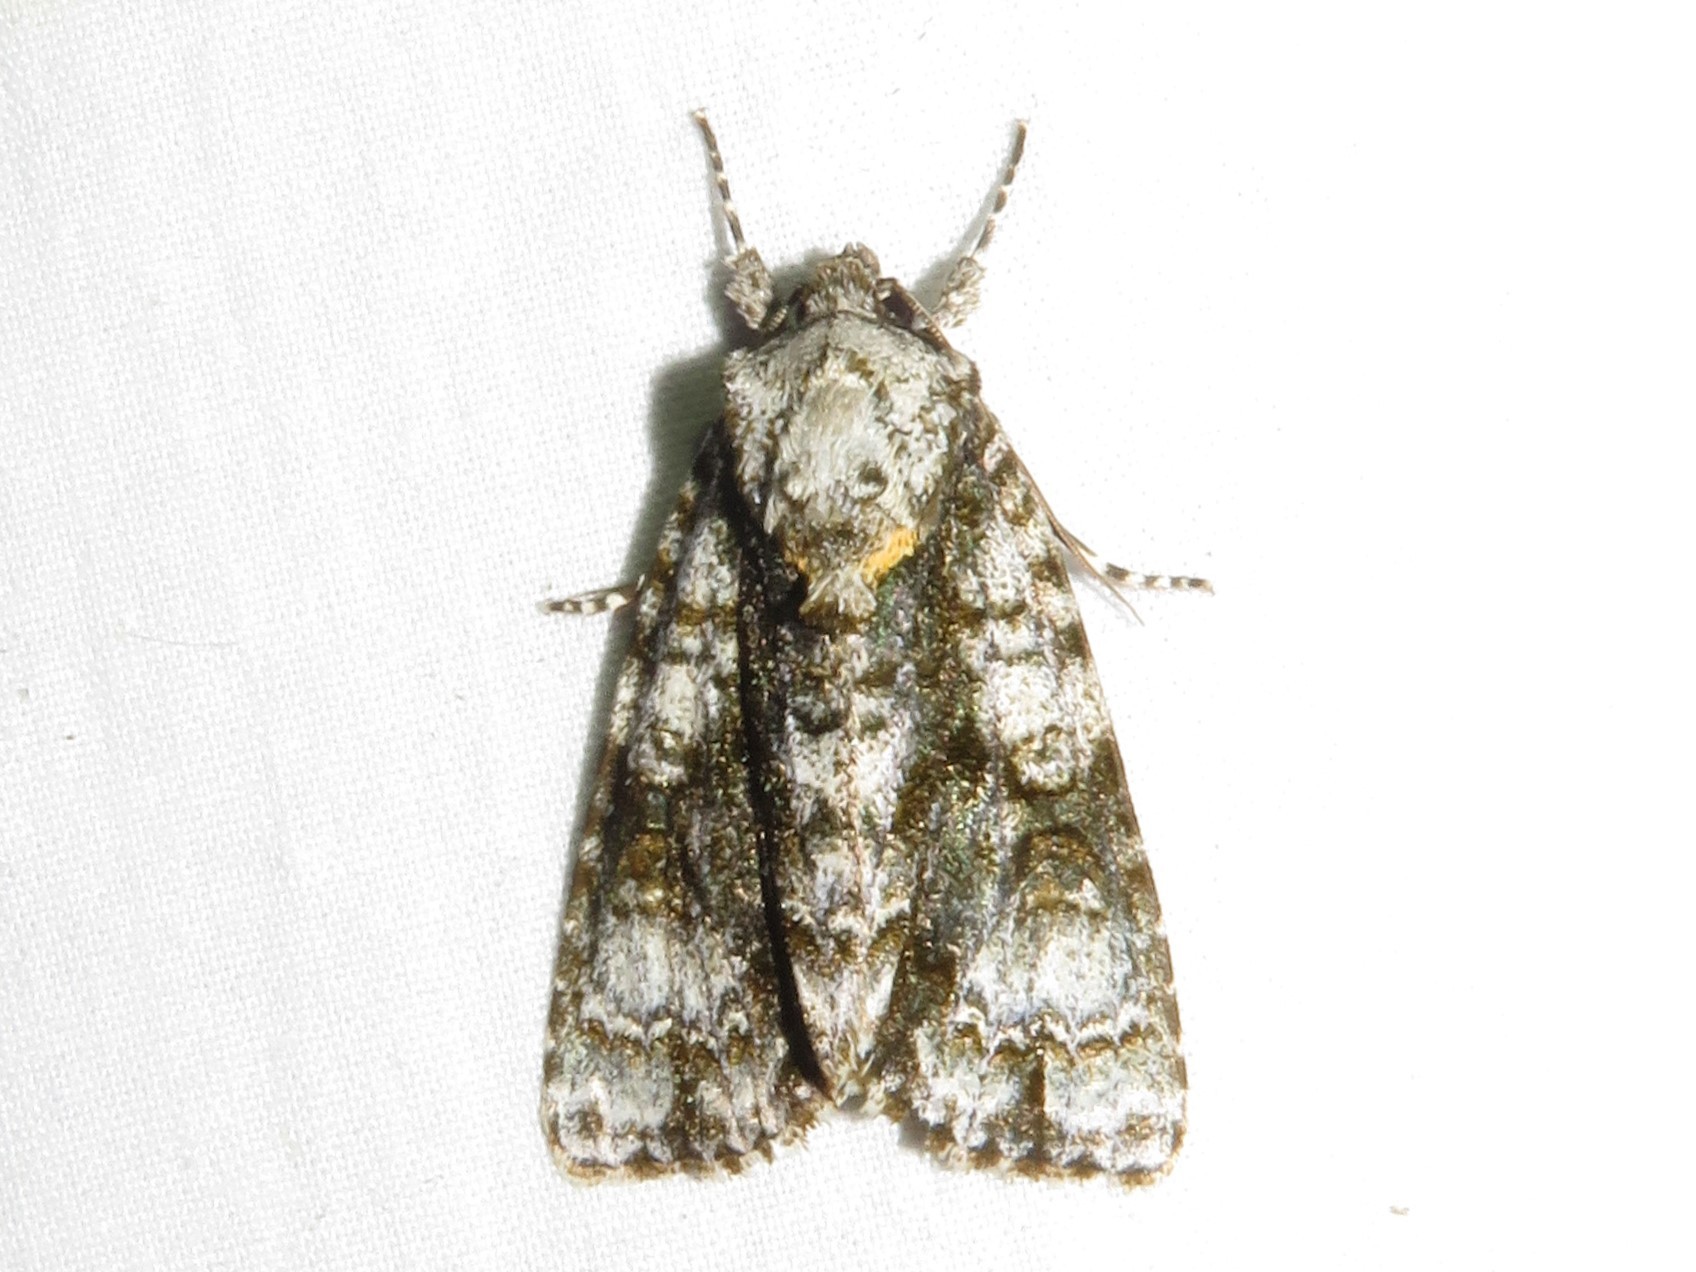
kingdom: Animalia
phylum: Arthropoda
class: Insecta
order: Lepidoptera
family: Noctuidae
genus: Acronicta
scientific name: Acronicta superans
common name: Splendid dagger
